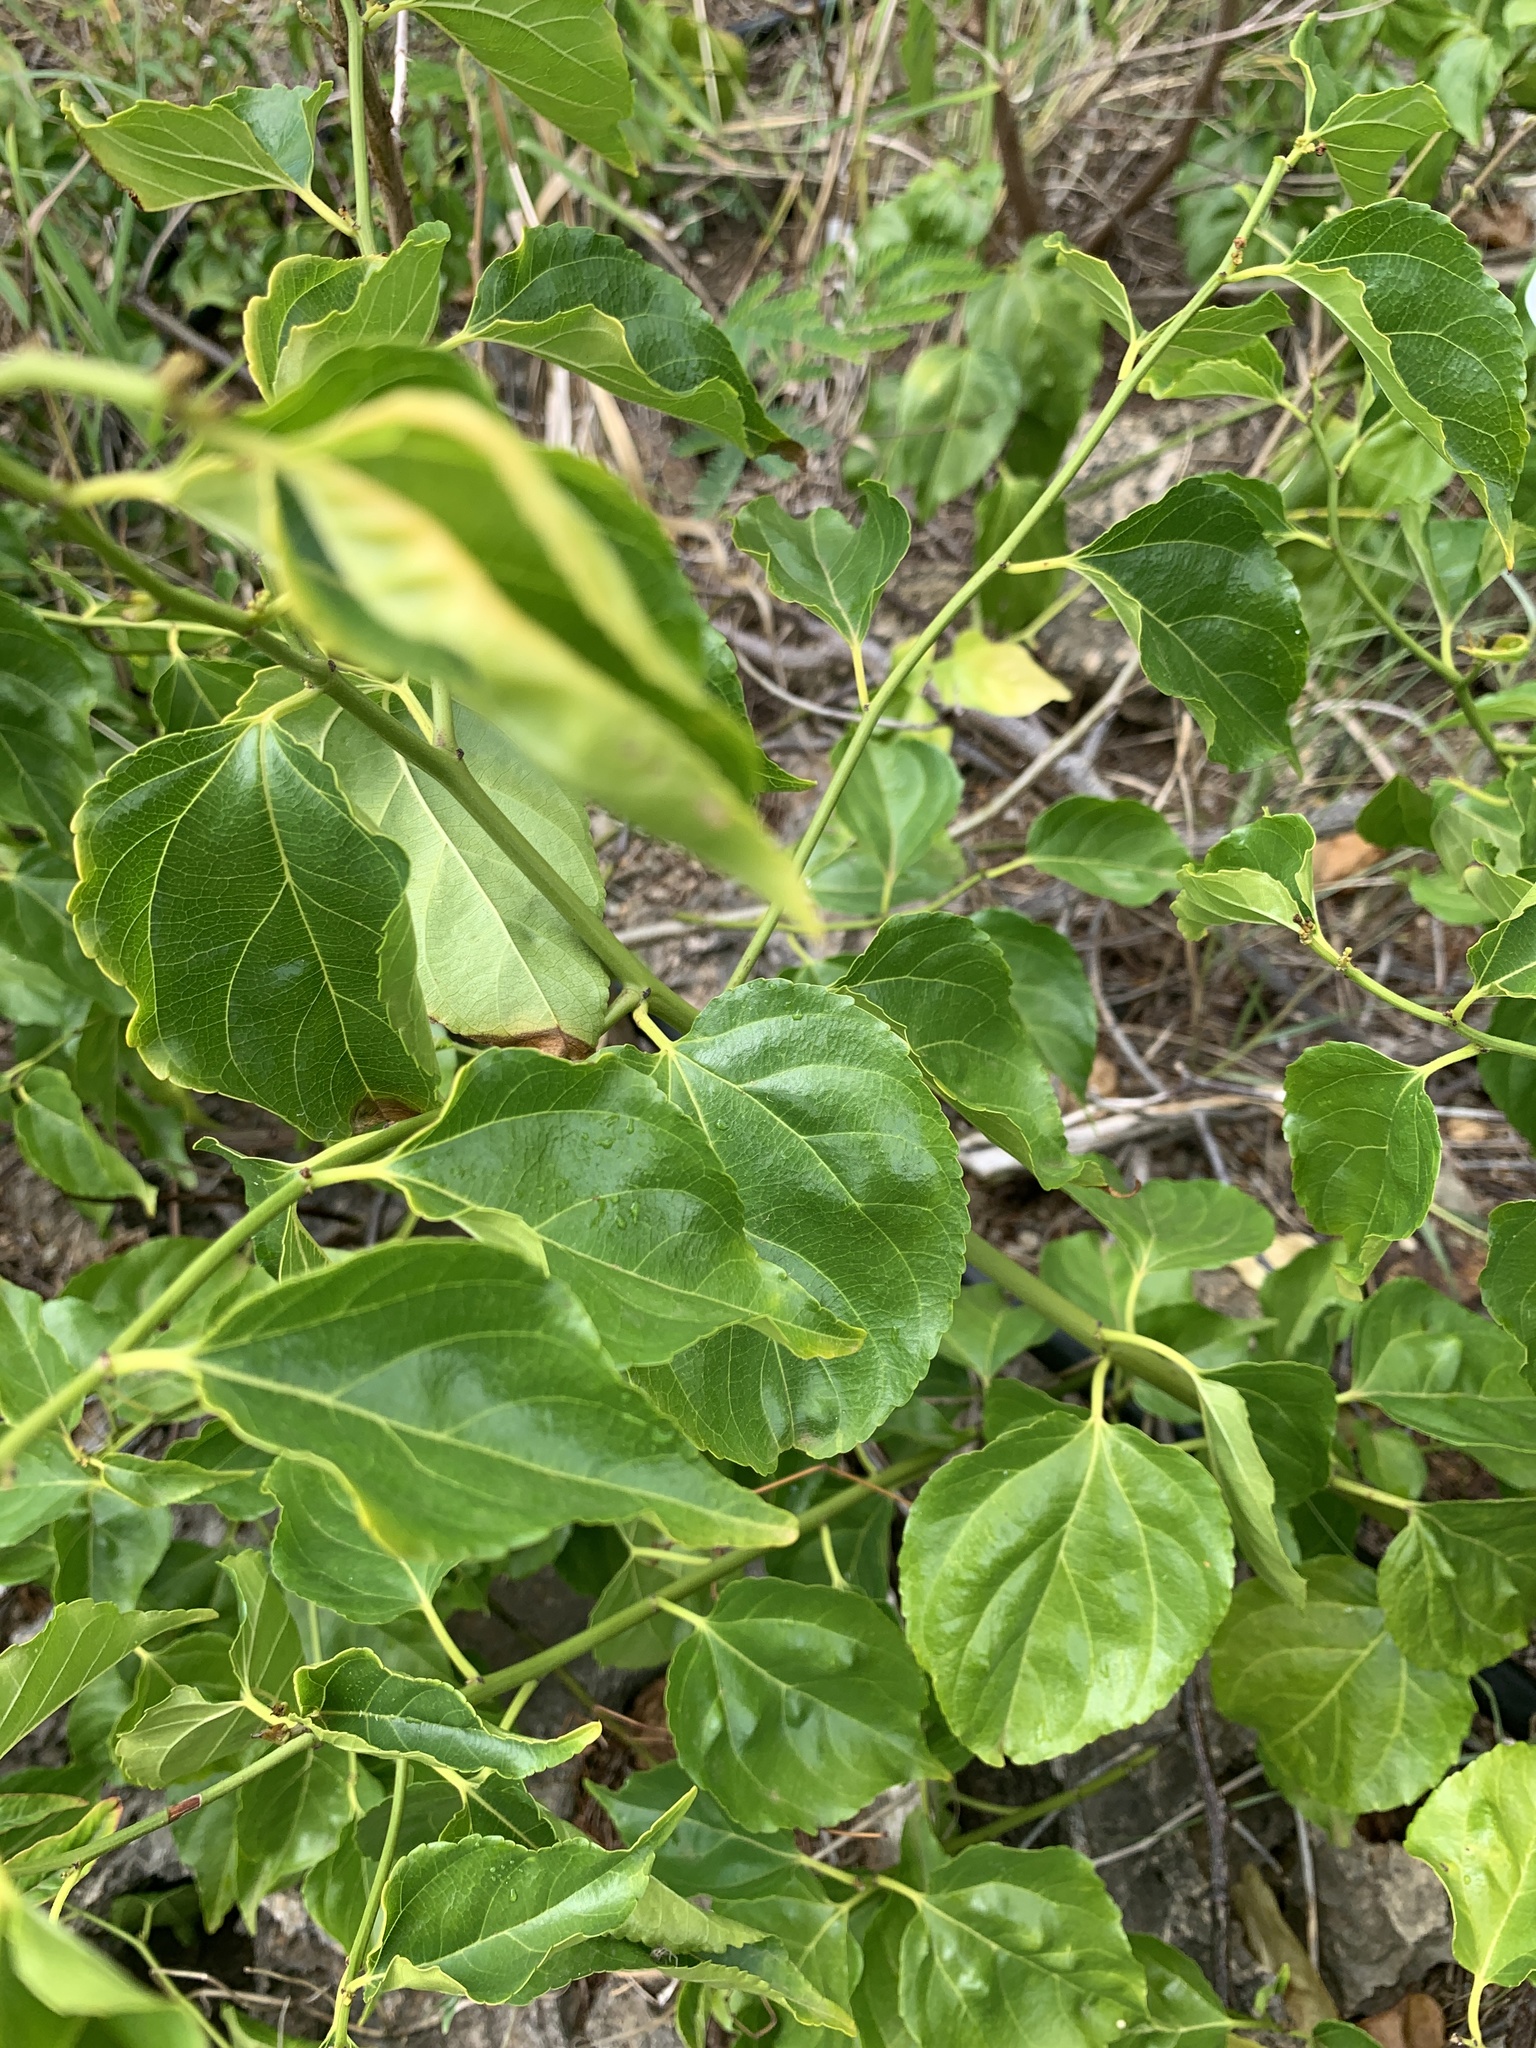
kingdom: Plantae
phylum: Tracheophyta
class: Magnoliopsida
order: Rosales
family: Rhamnaceae
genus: Colubrina
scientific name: Colubrina asiatica
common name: Asian nakedwood
